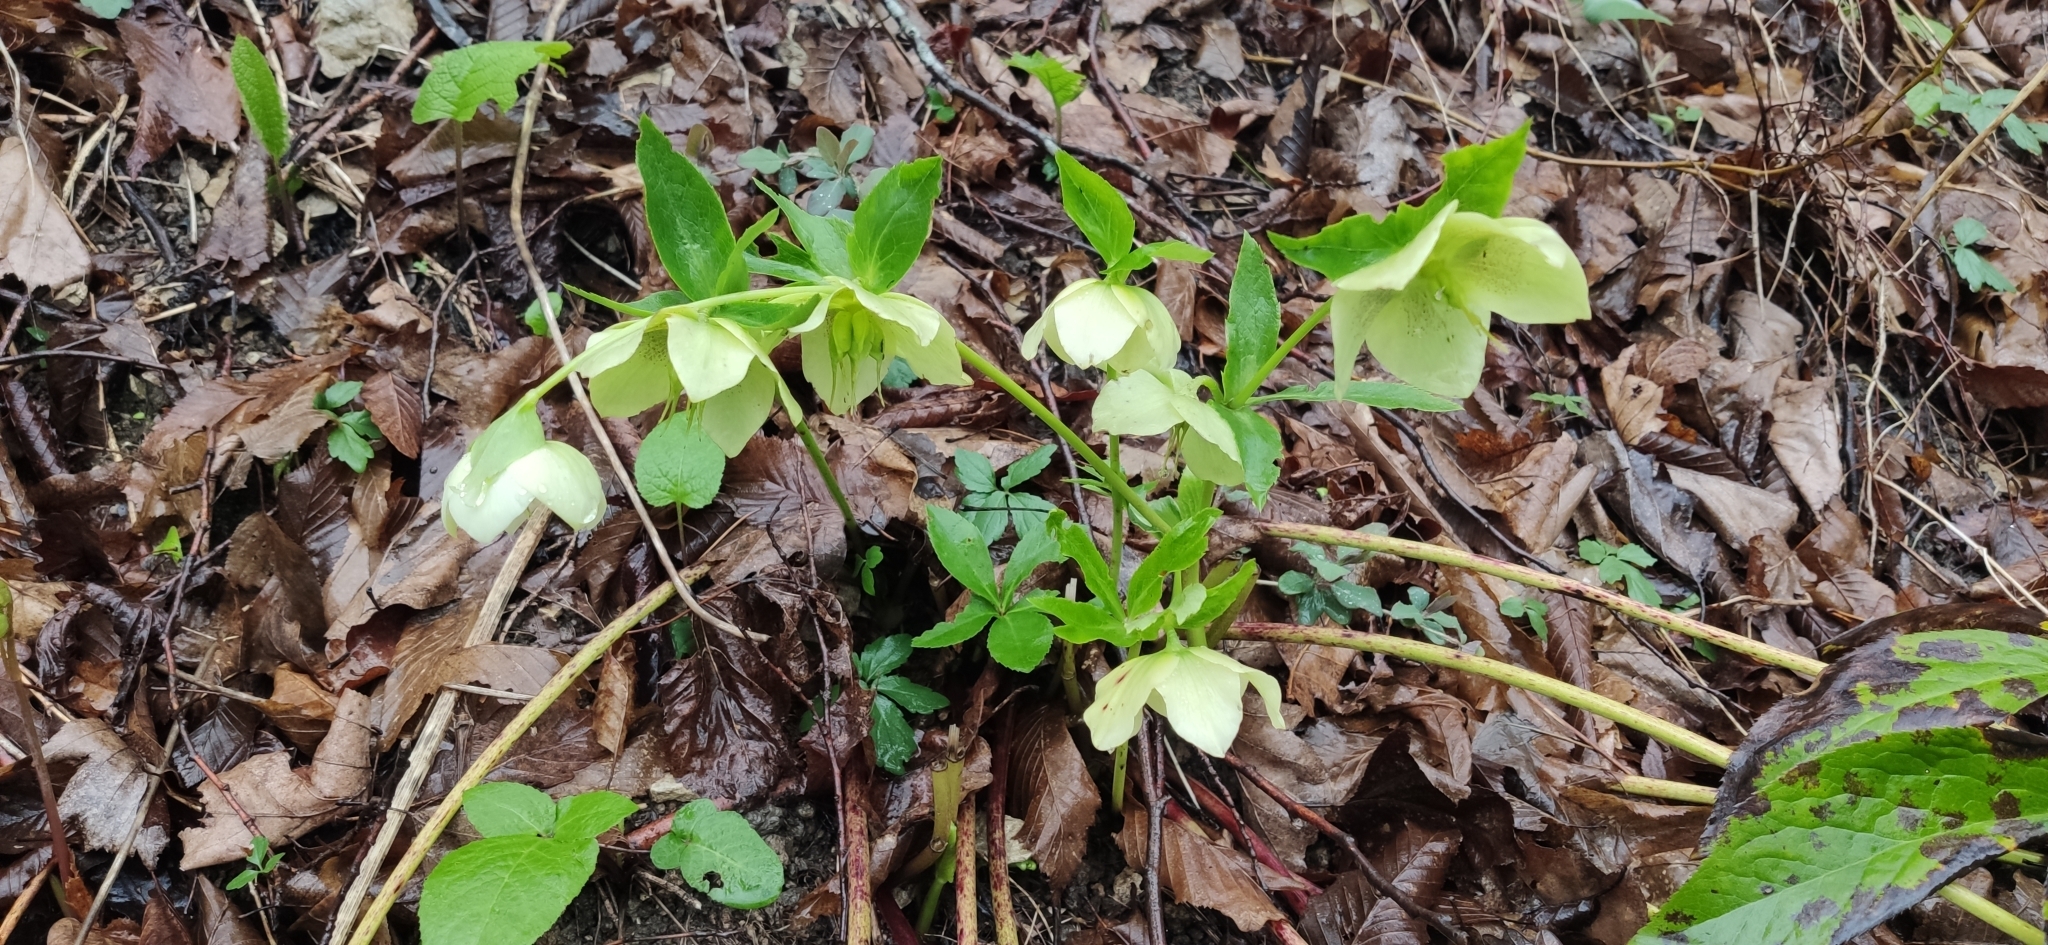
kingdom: Plantae
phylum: Tracheophyta
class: Magnoliopsida
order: Ranunculales
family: Ranunculaceae
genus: Helleborus
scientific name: Helleborus orientalis
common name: Lenten-rose
